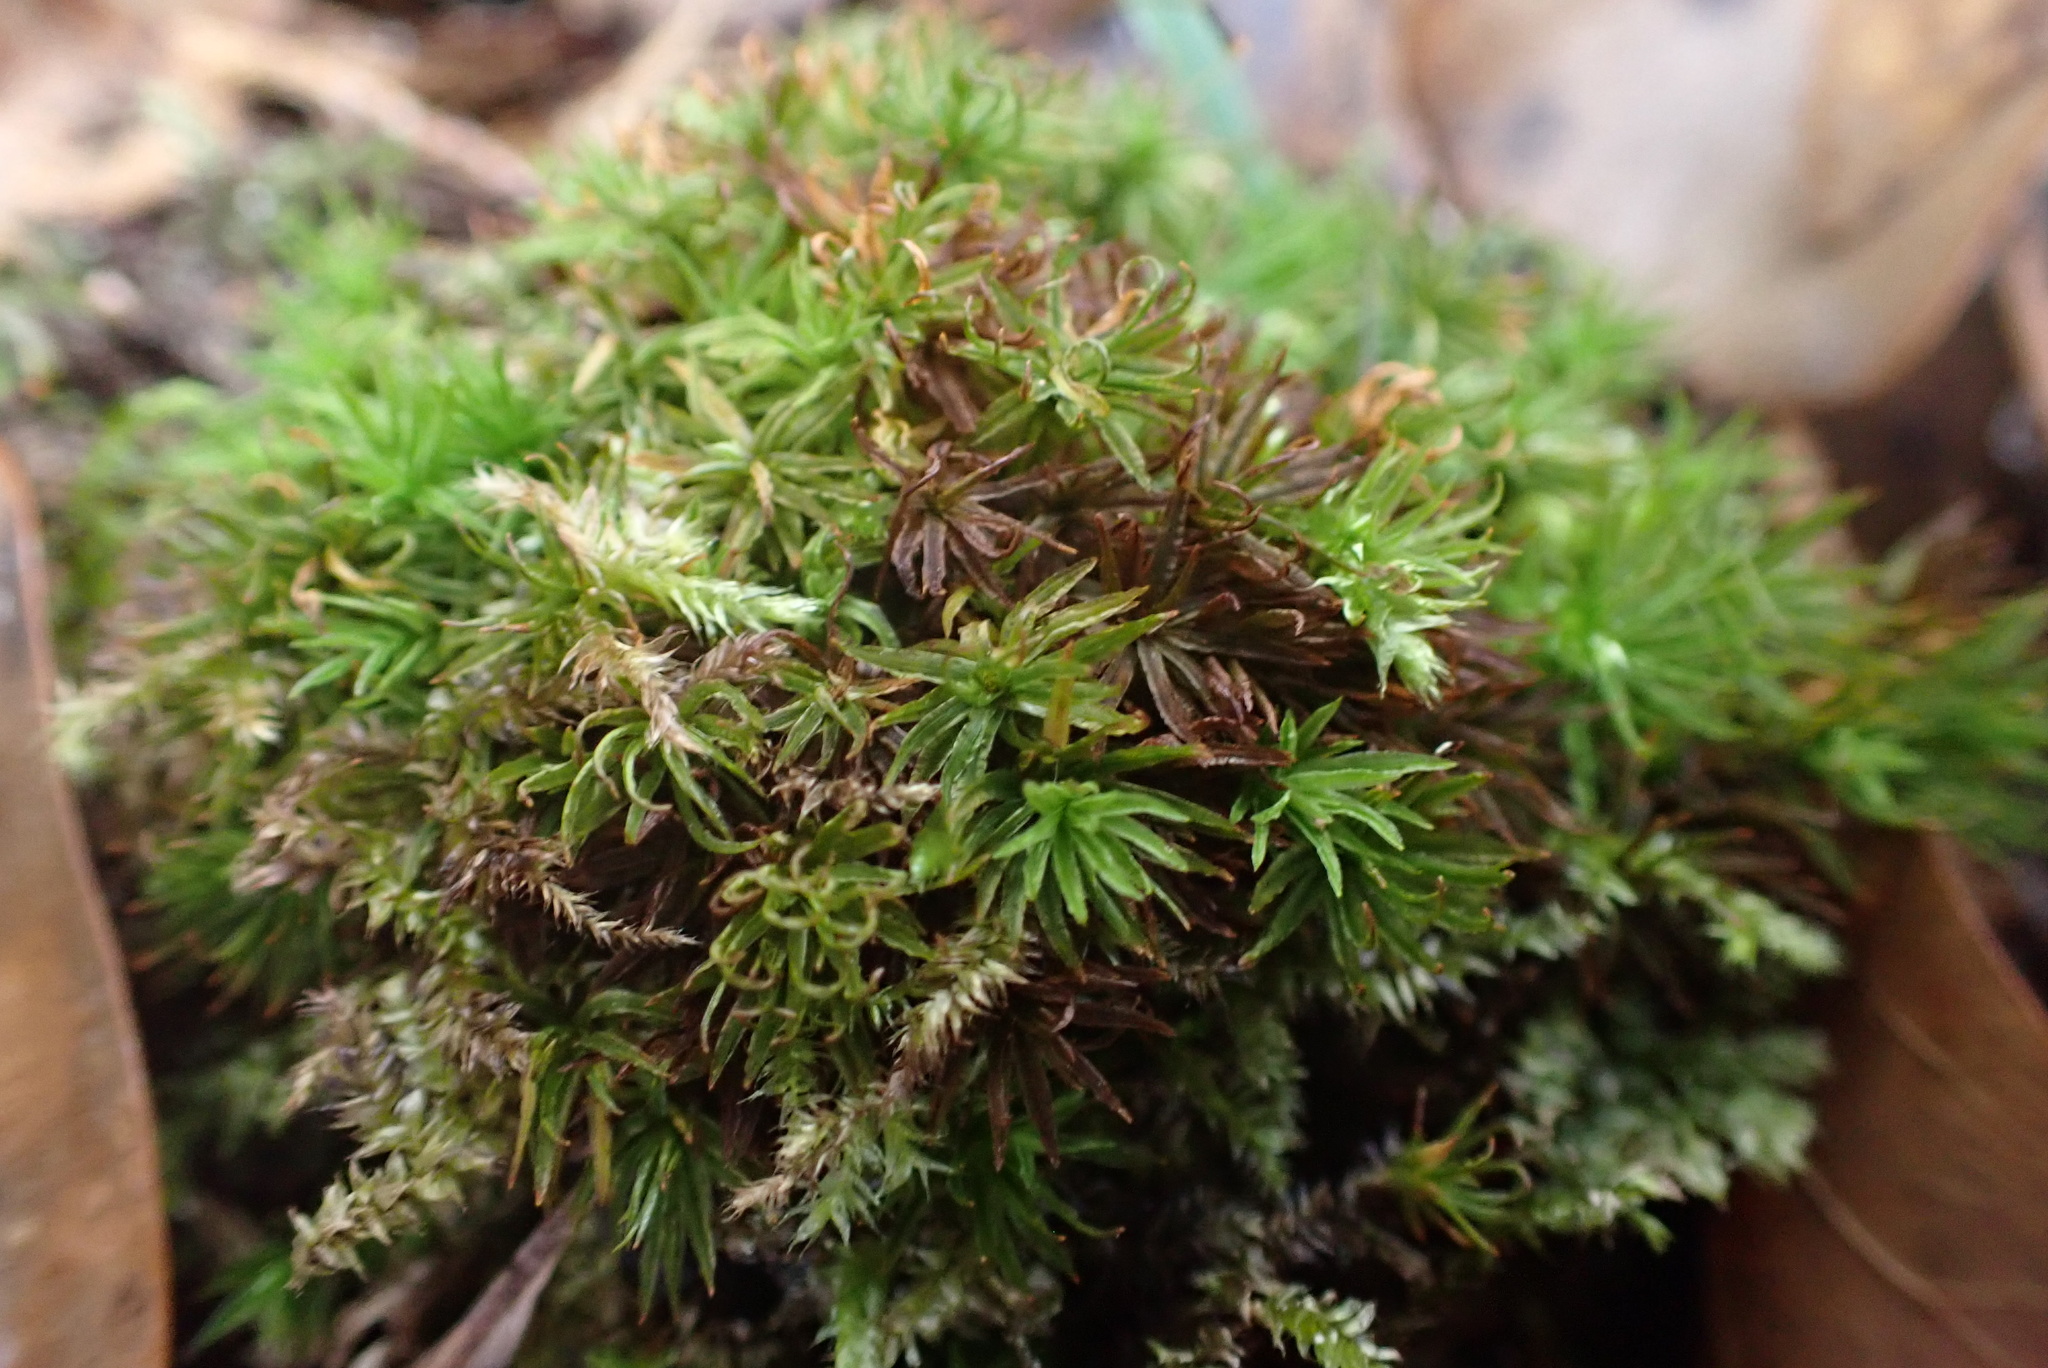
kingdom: Plantae
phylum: Bryophyta
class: Polytrichopsida
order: Polytrichales
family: Polytrichaceae
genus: Atrichum
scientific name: Atrichum angustatum
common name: Lesser smoothcap
